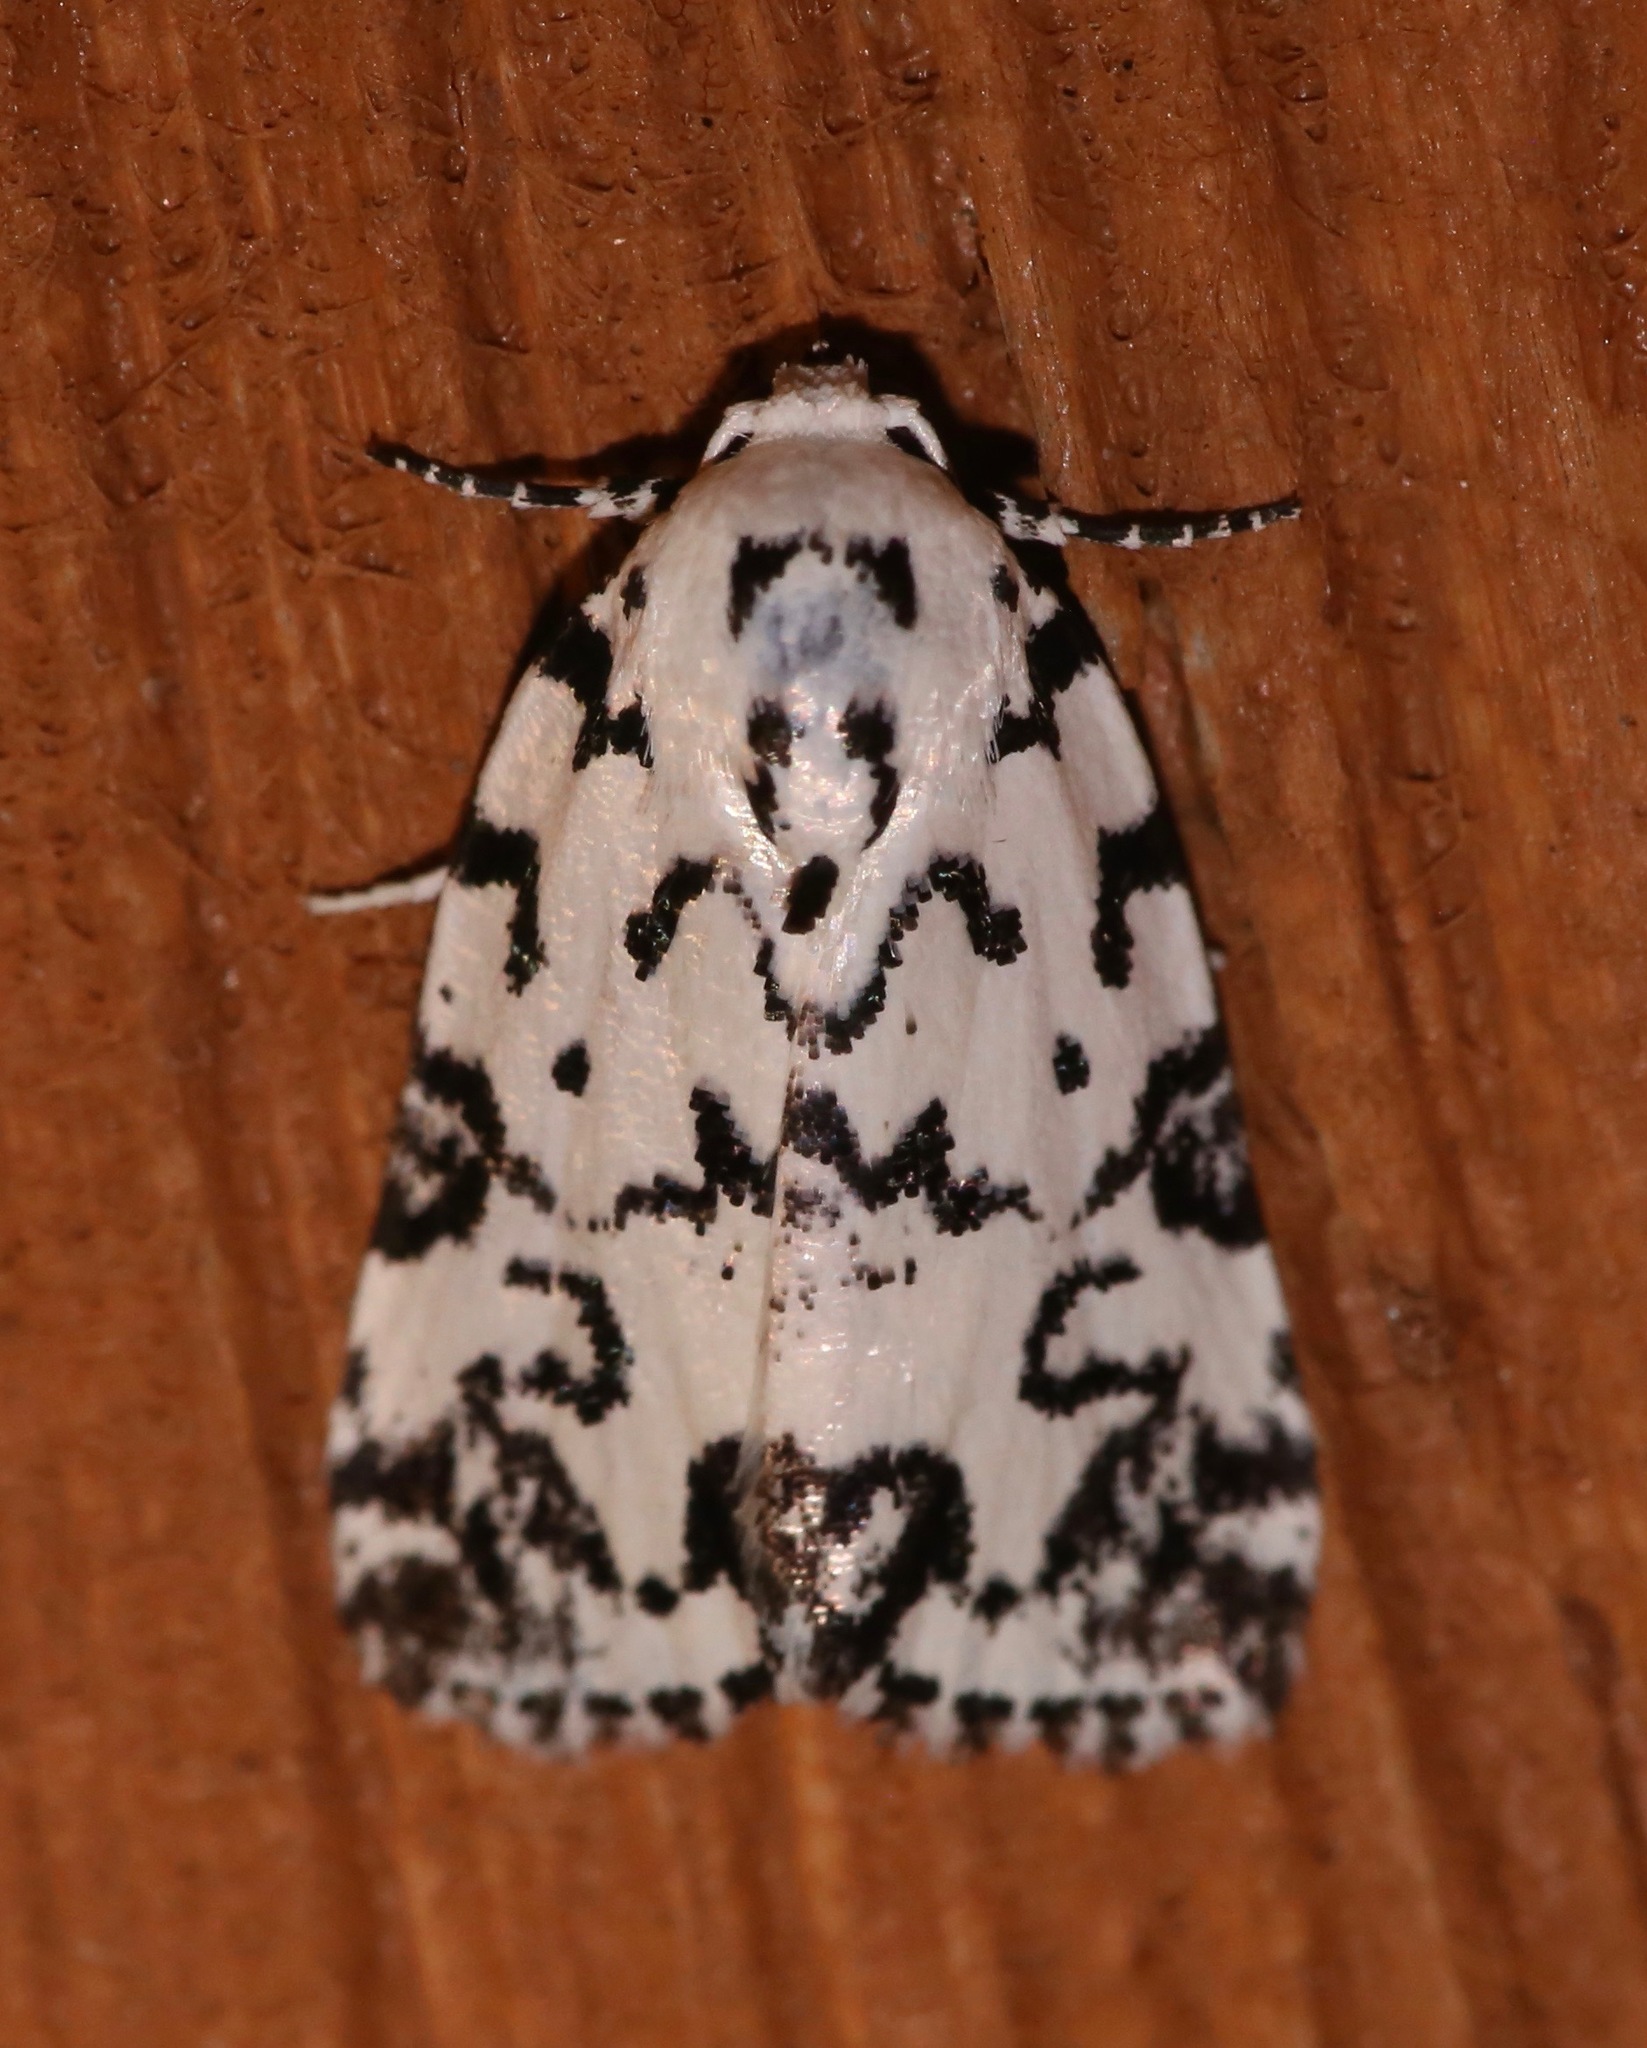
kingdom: Animalia
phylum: Arthropoda
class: Insecta
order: Lepidoptera
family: Noctuidae
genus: Polygrammate
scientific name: Polygrammate hebraeicum
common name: Hebrew moth
